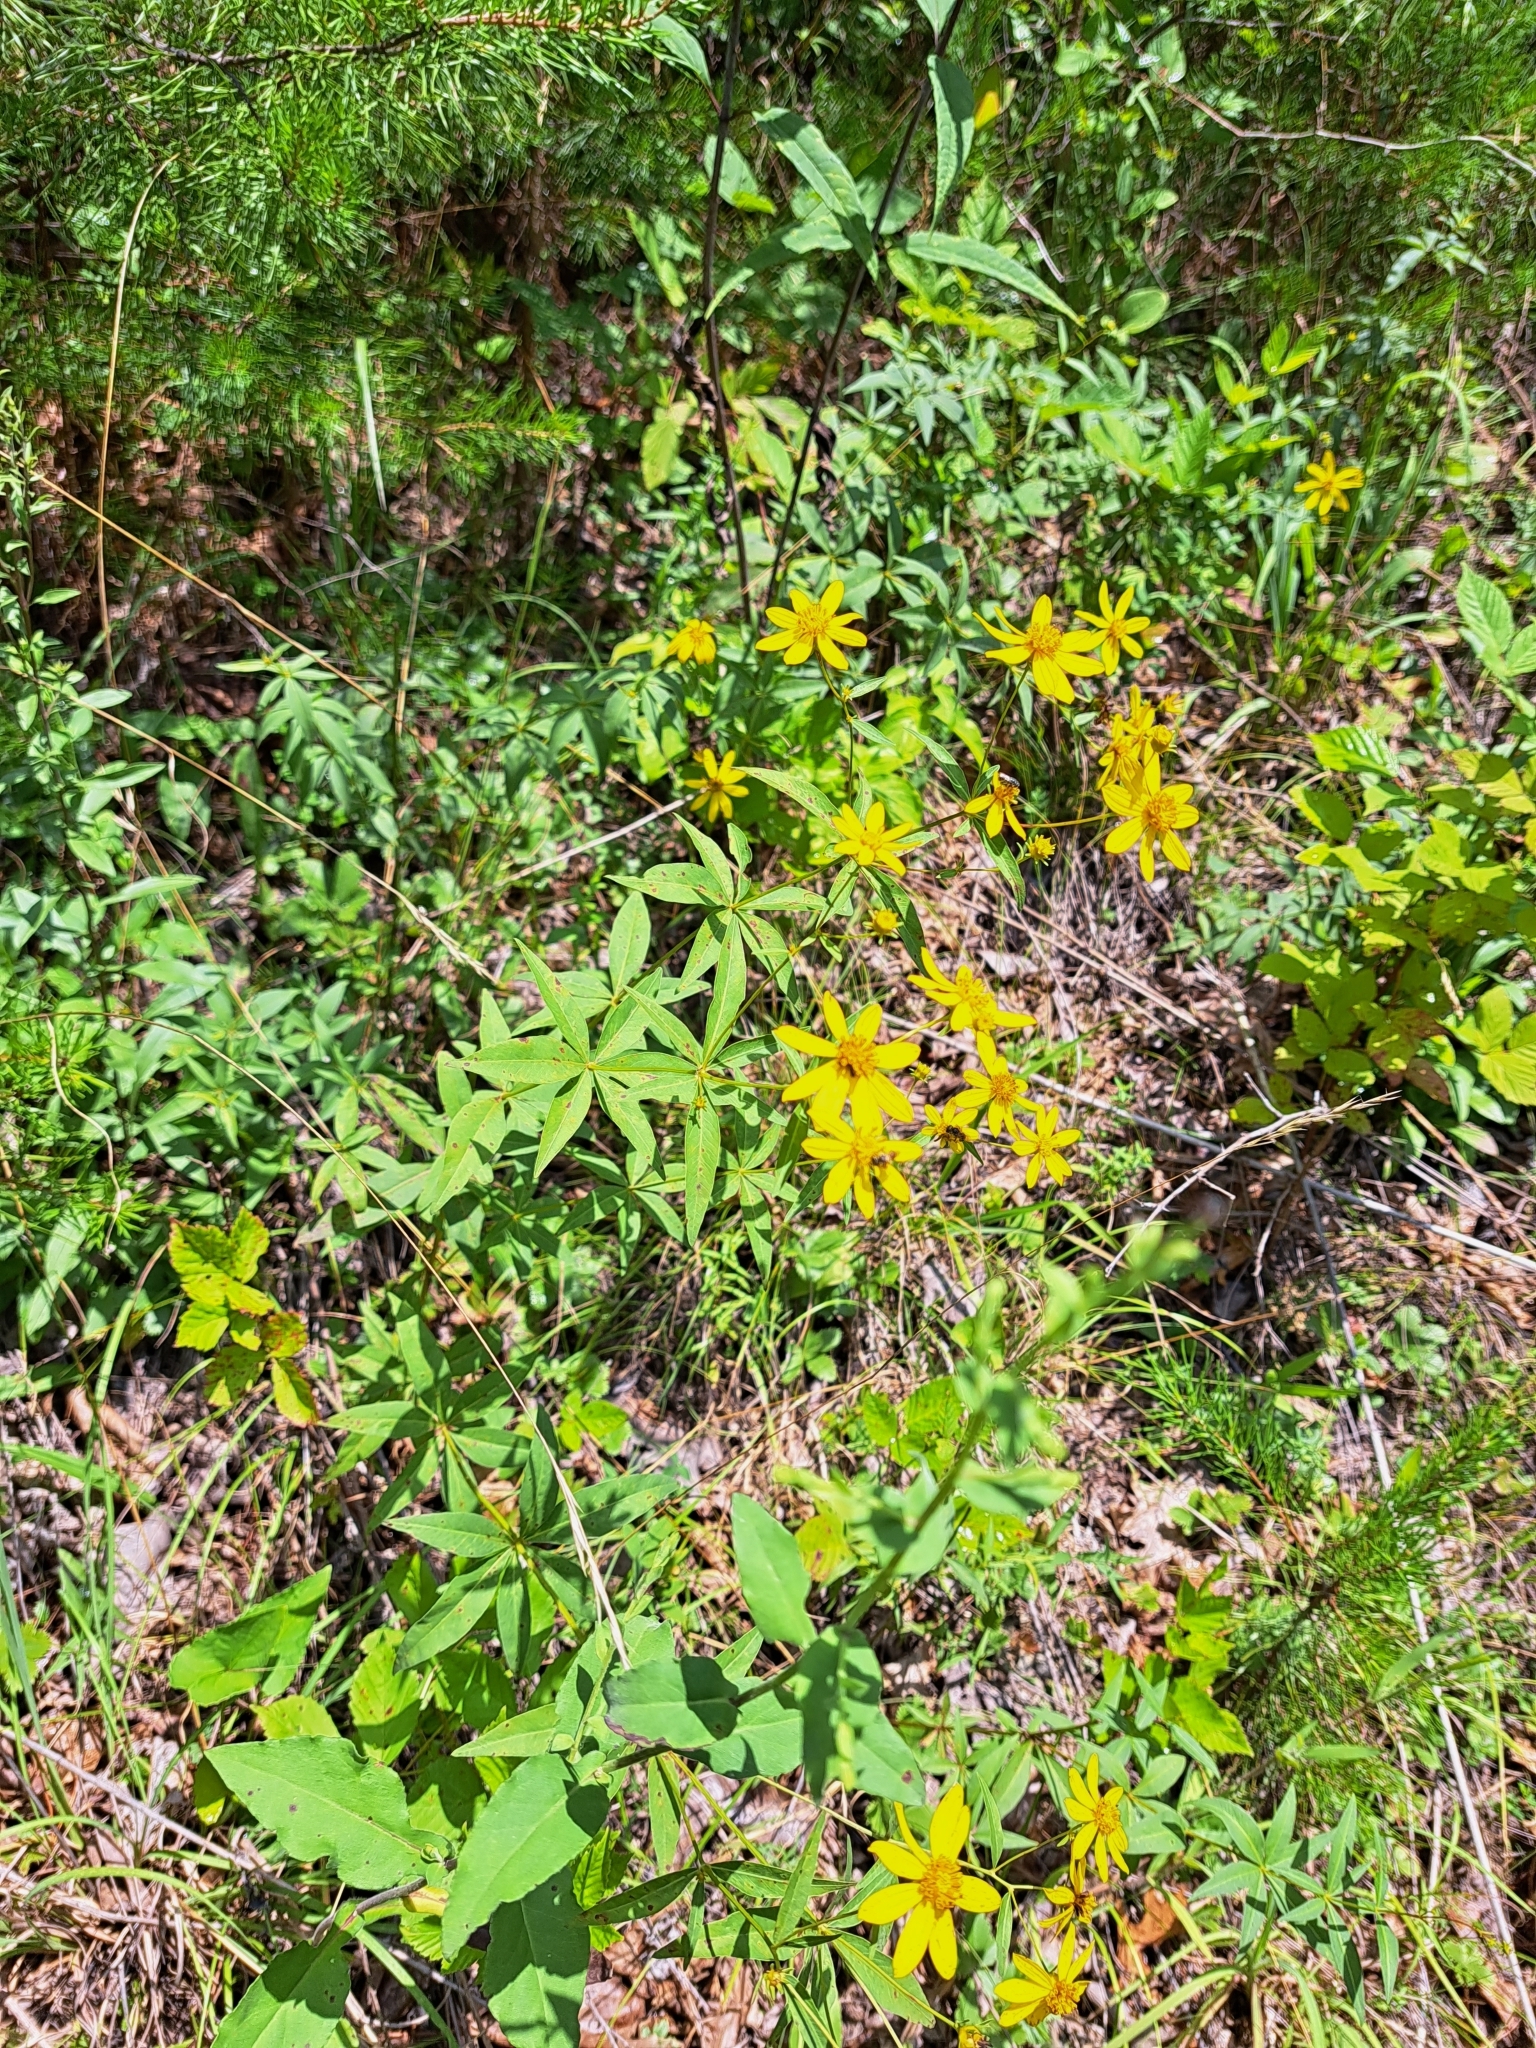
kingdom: Plantae
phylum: Tracheophyta
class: Magnoliopsida
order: Asterales
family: Asteraceae
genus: Coreopsis
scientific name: Coreopsis major
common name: Forest tickseed
